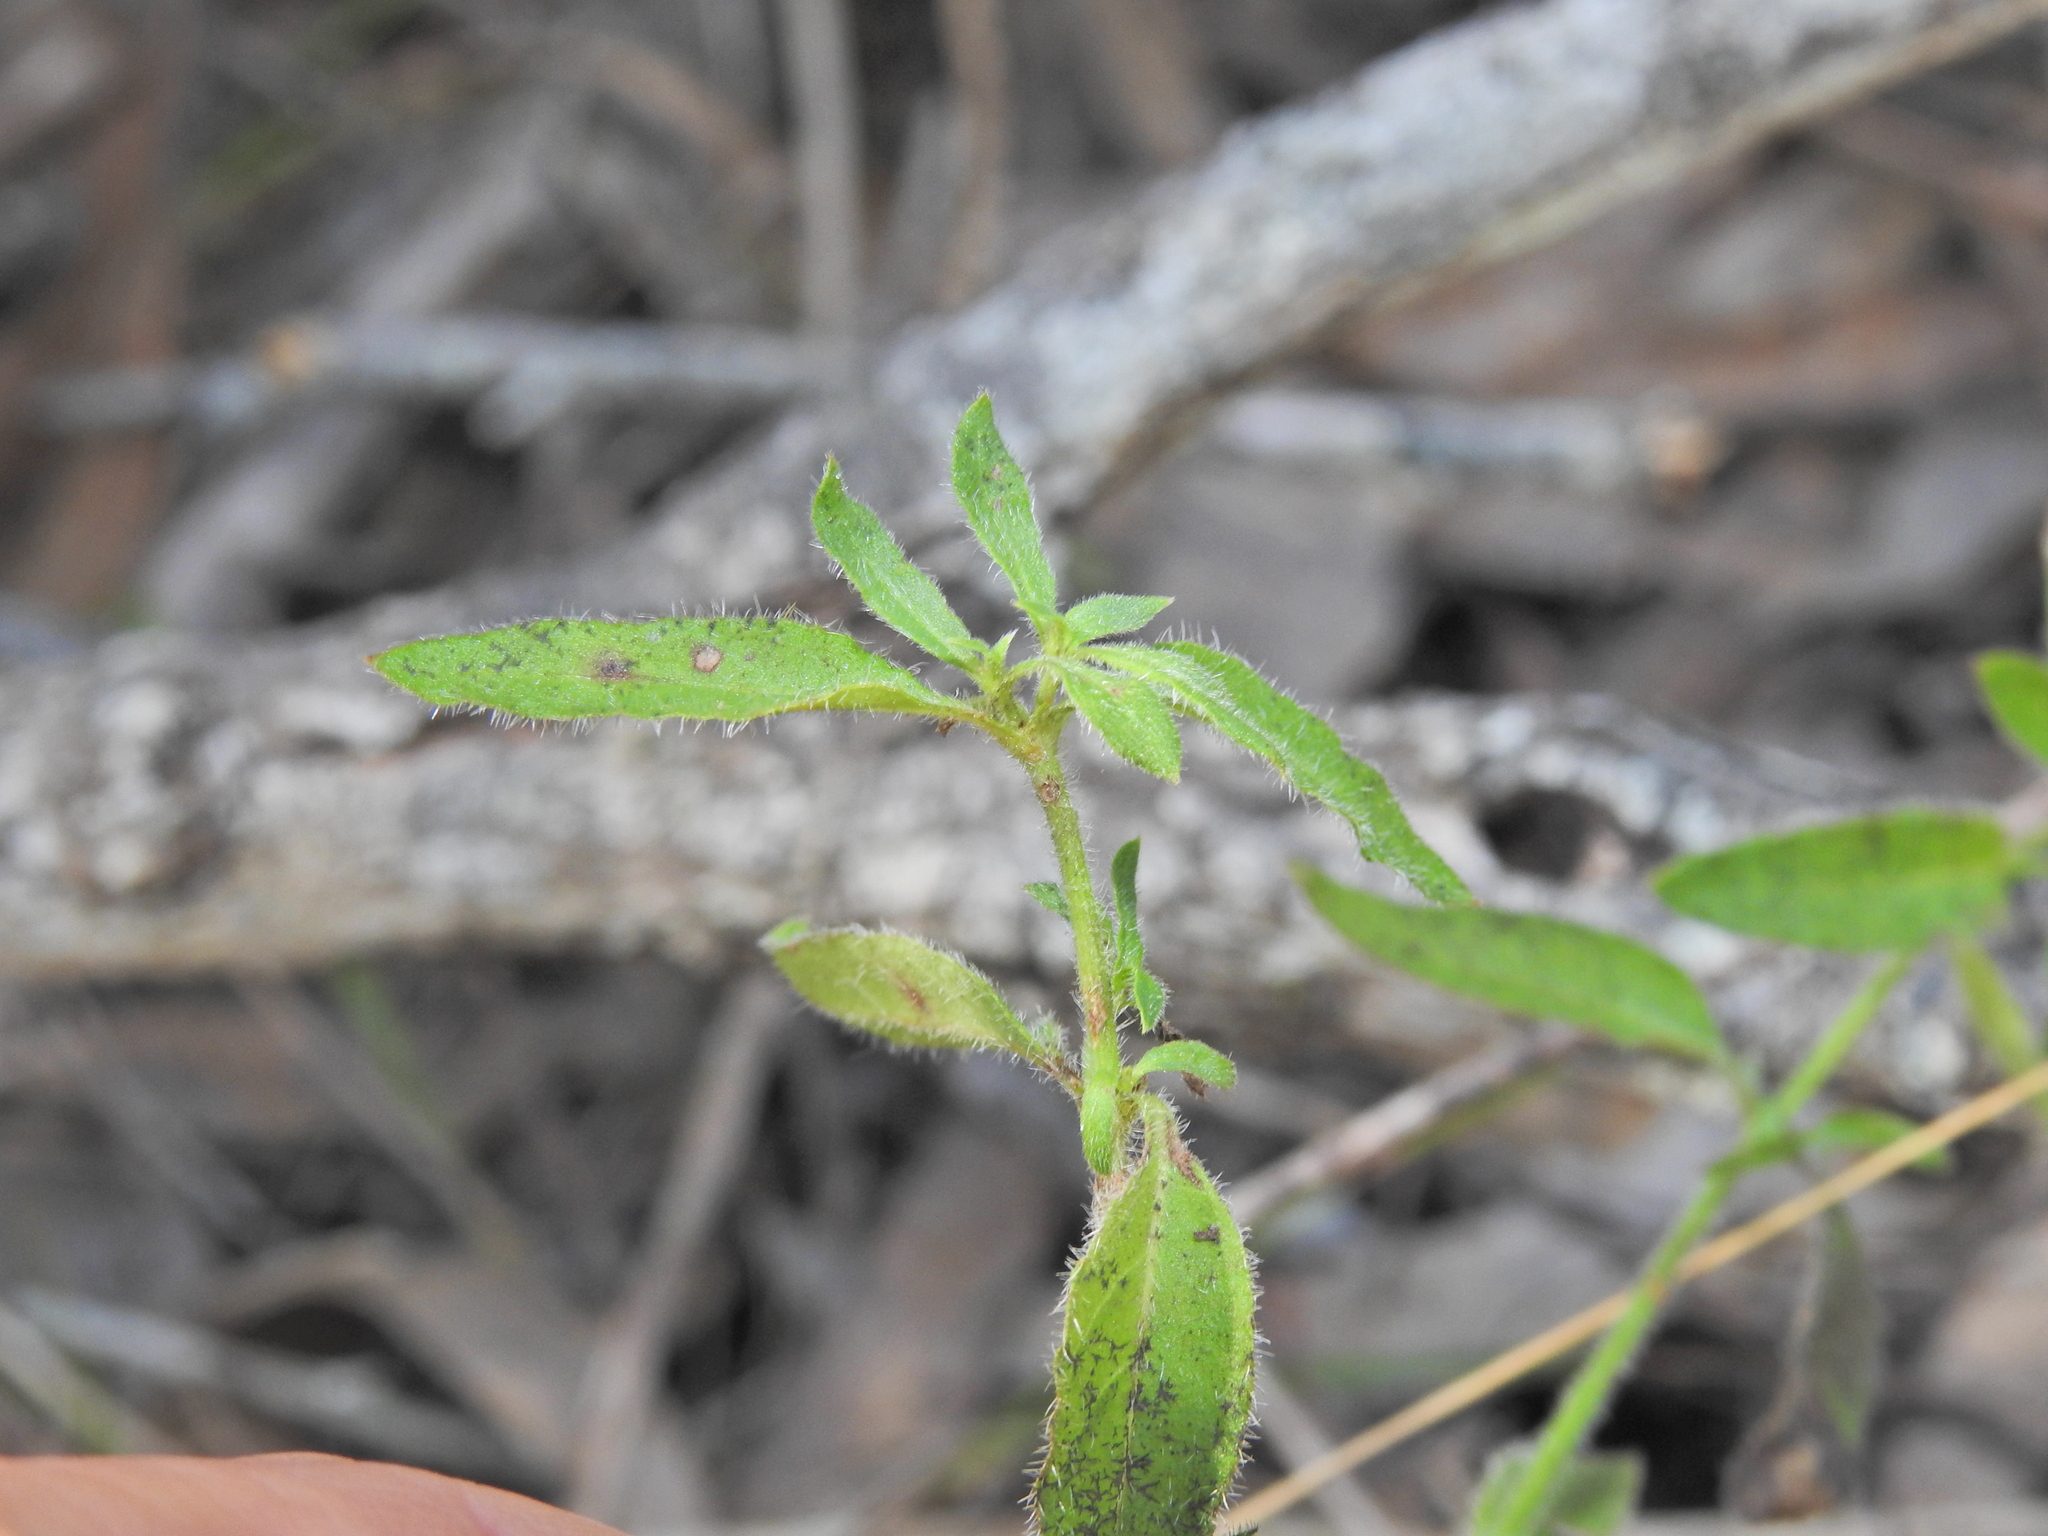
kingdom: Plantae
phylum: Tracheophyta
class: Magnoliopsida
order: Gentianales
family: Rubiaceae
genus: Opercularia
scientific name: Opercularia hispida
